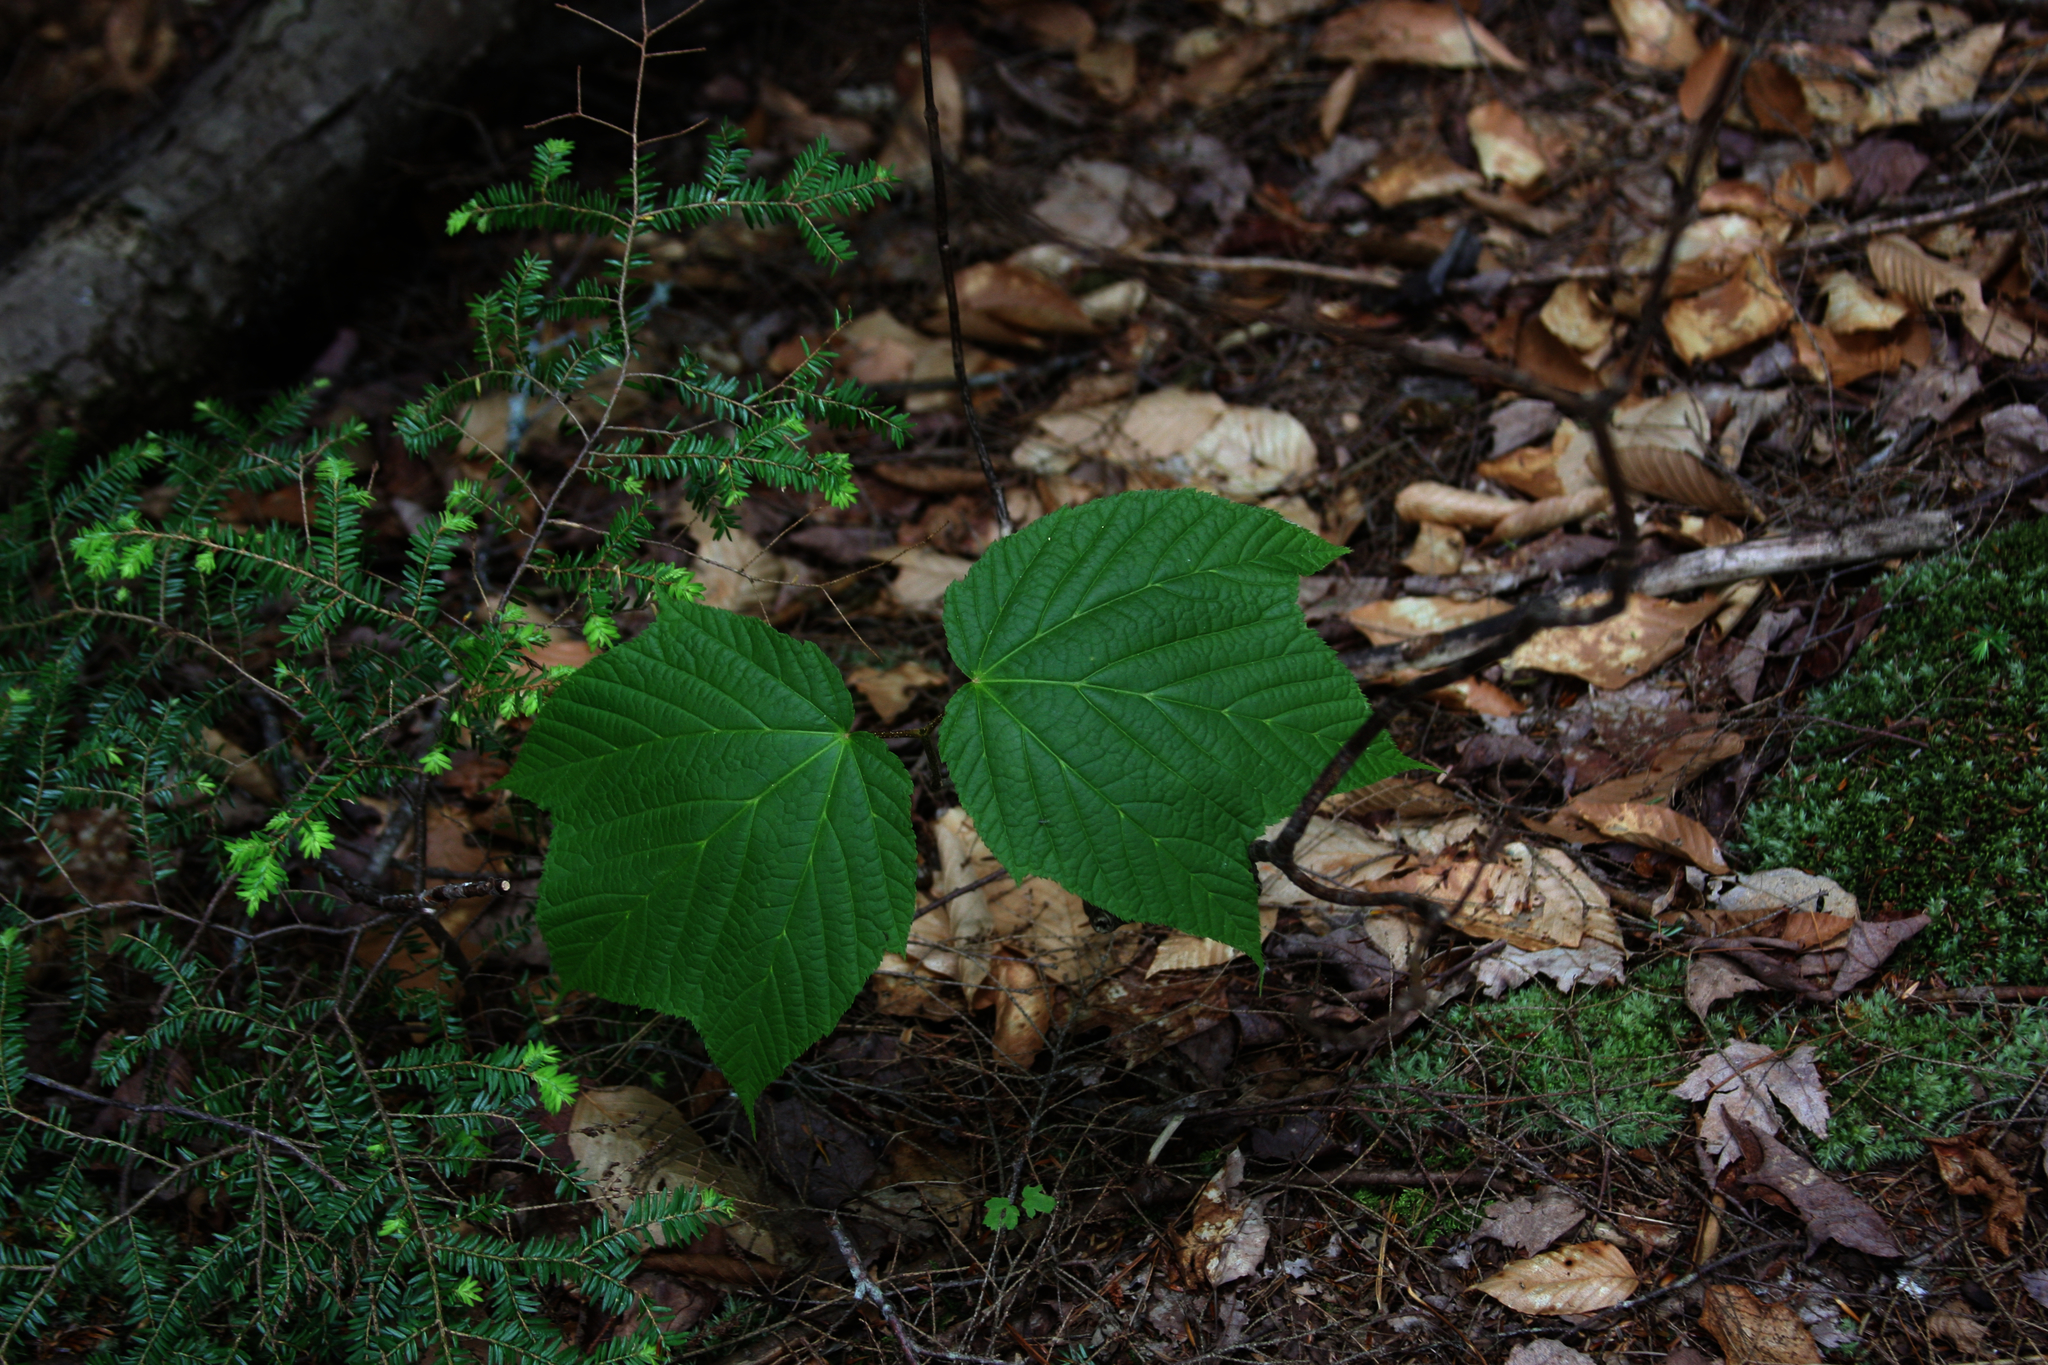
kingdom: Plantae
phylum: Tracheophyta
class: Pinopsida
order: Pinales
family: Pinaceae
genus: Tsuga
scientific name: Tsuga canadensis
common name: Eastern hemlock
